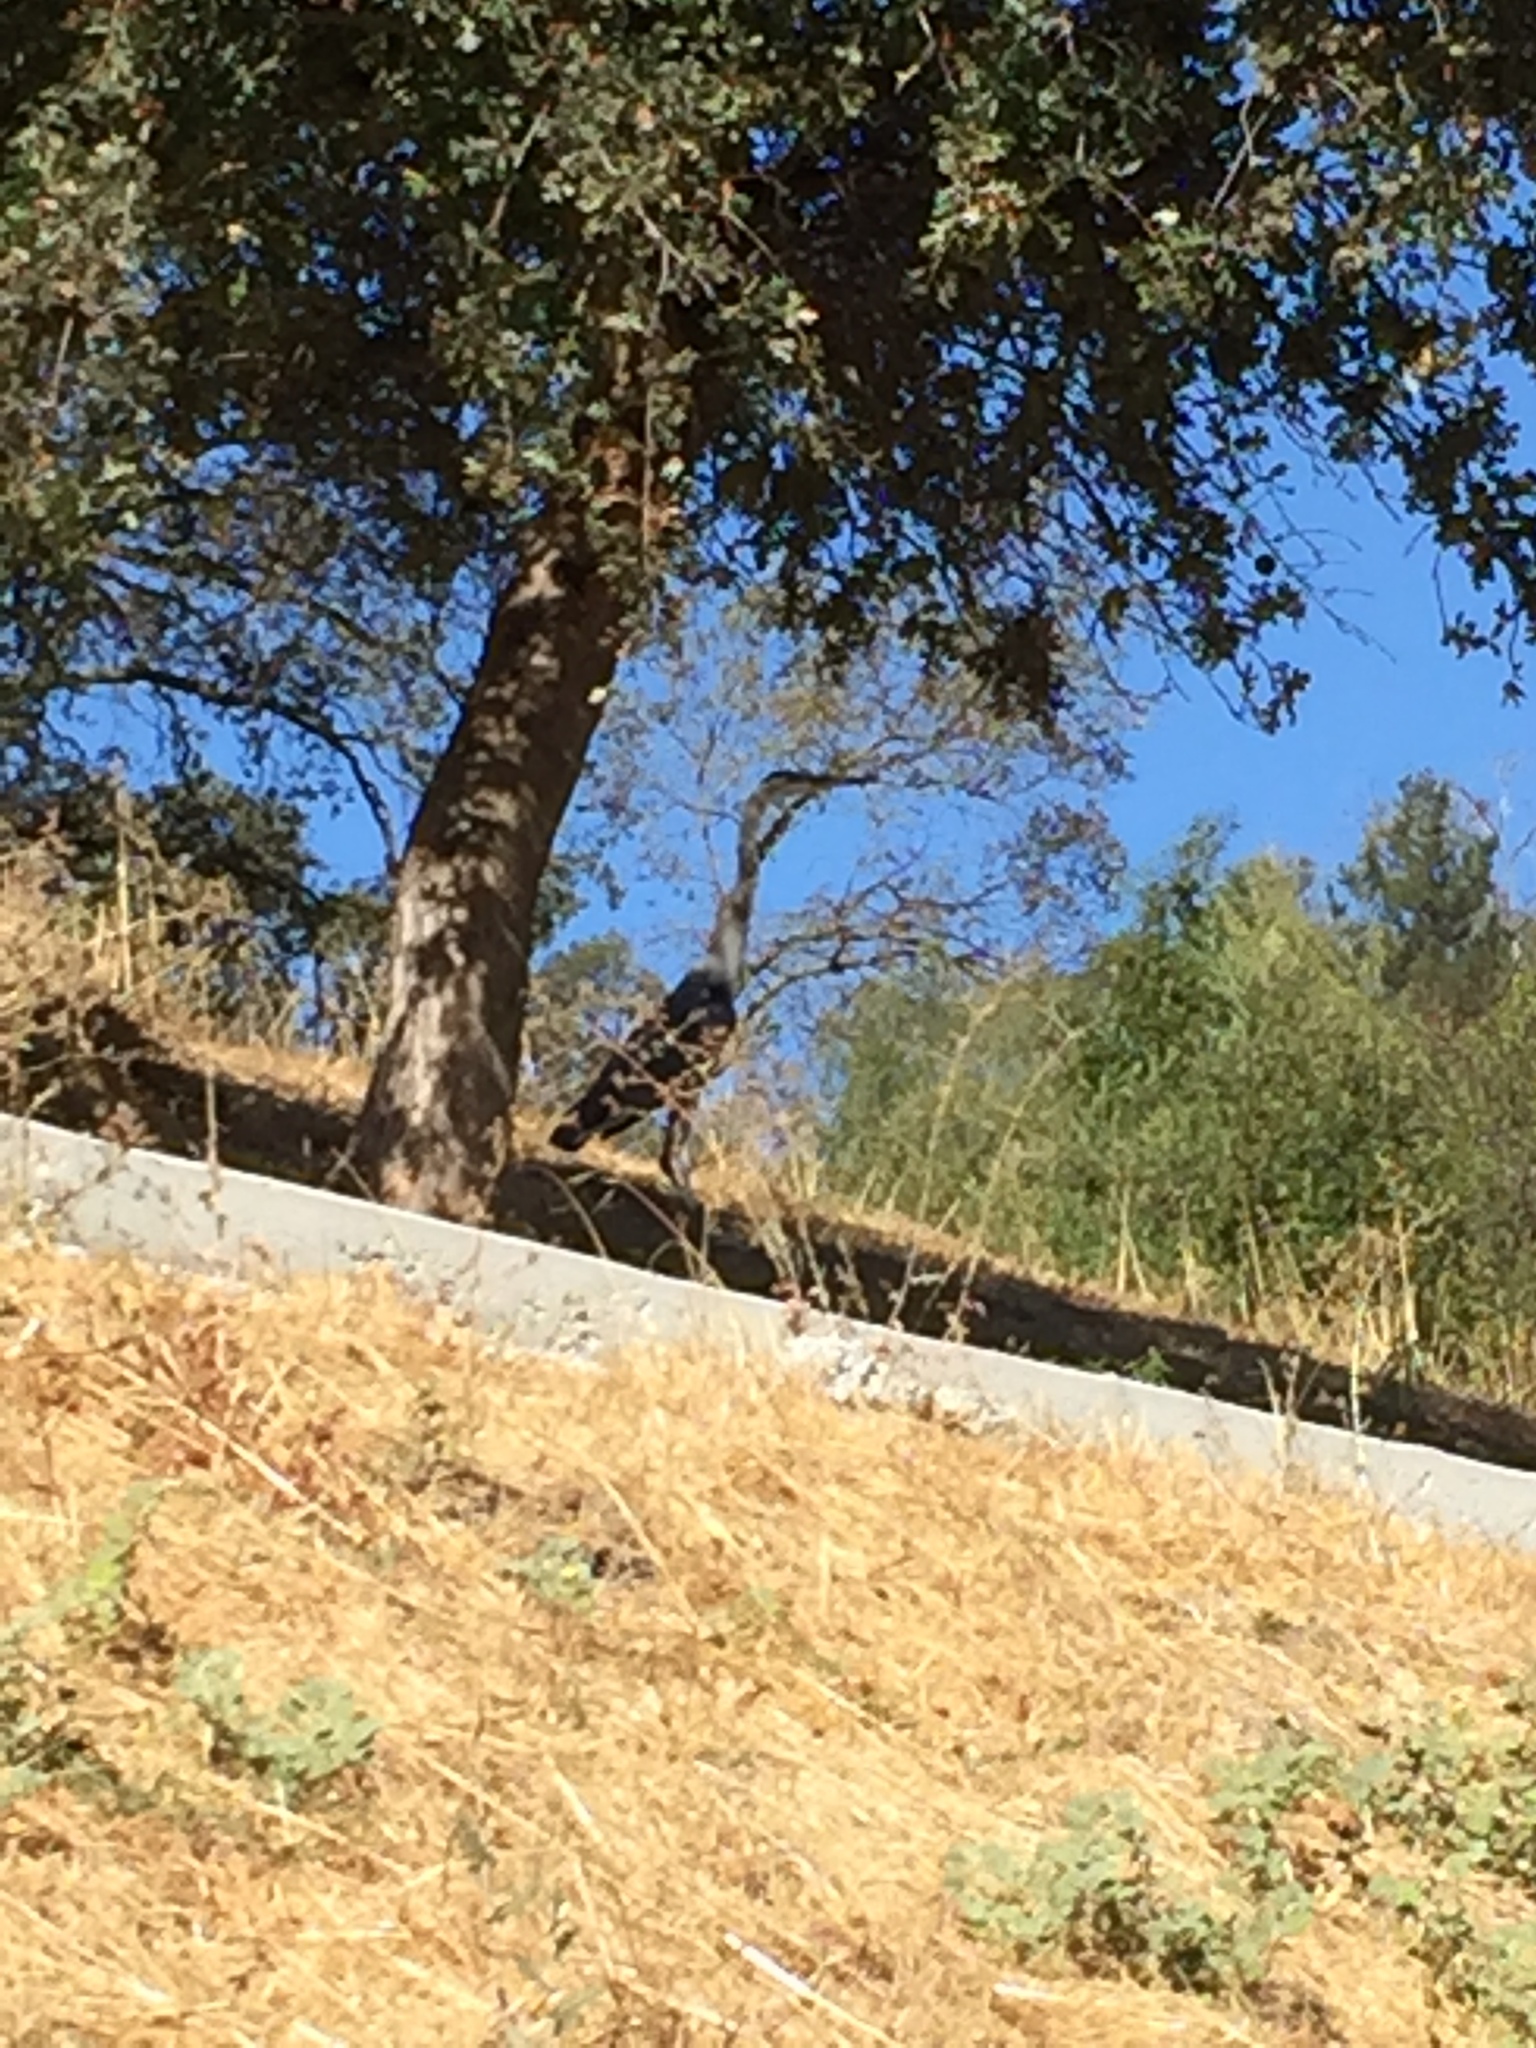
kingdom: Animalia
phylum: Chordata
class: Aves
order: Pelecaniformes
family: Ardeidae
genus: Ardea
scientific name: Ardea herodias
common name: Great blue heron
